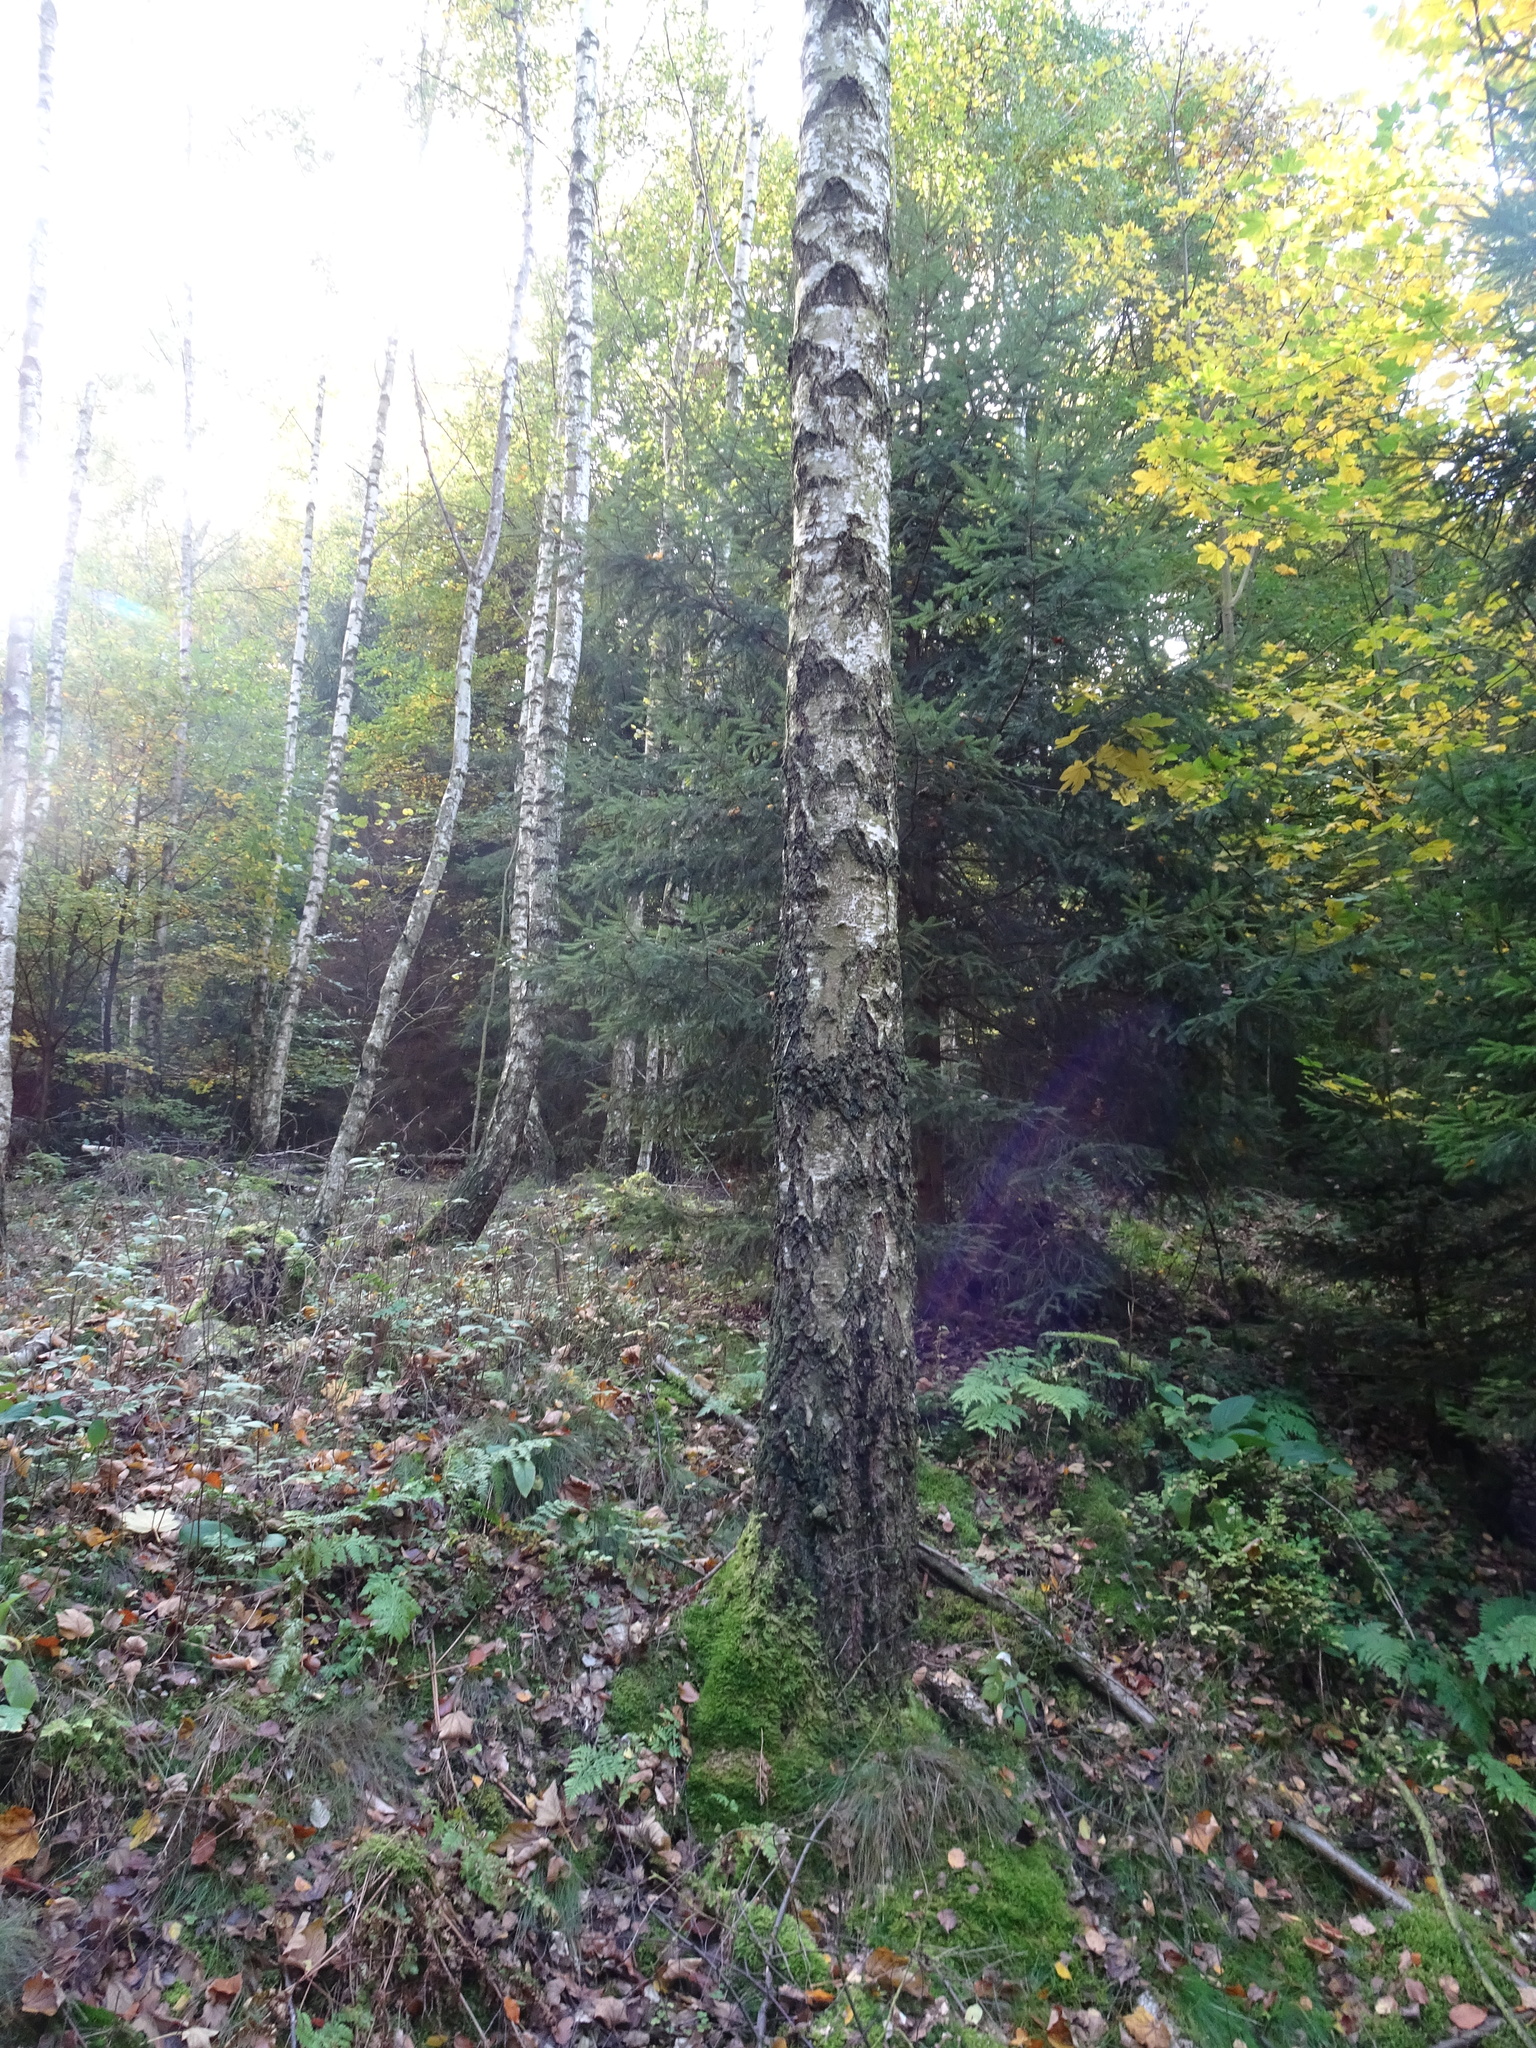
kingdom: Plantae
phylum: Tracheophyta
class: Magnoliopsida
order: Fagales
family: Betulaceae
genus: Betula
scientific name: Betula pendula
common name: Silver birch
